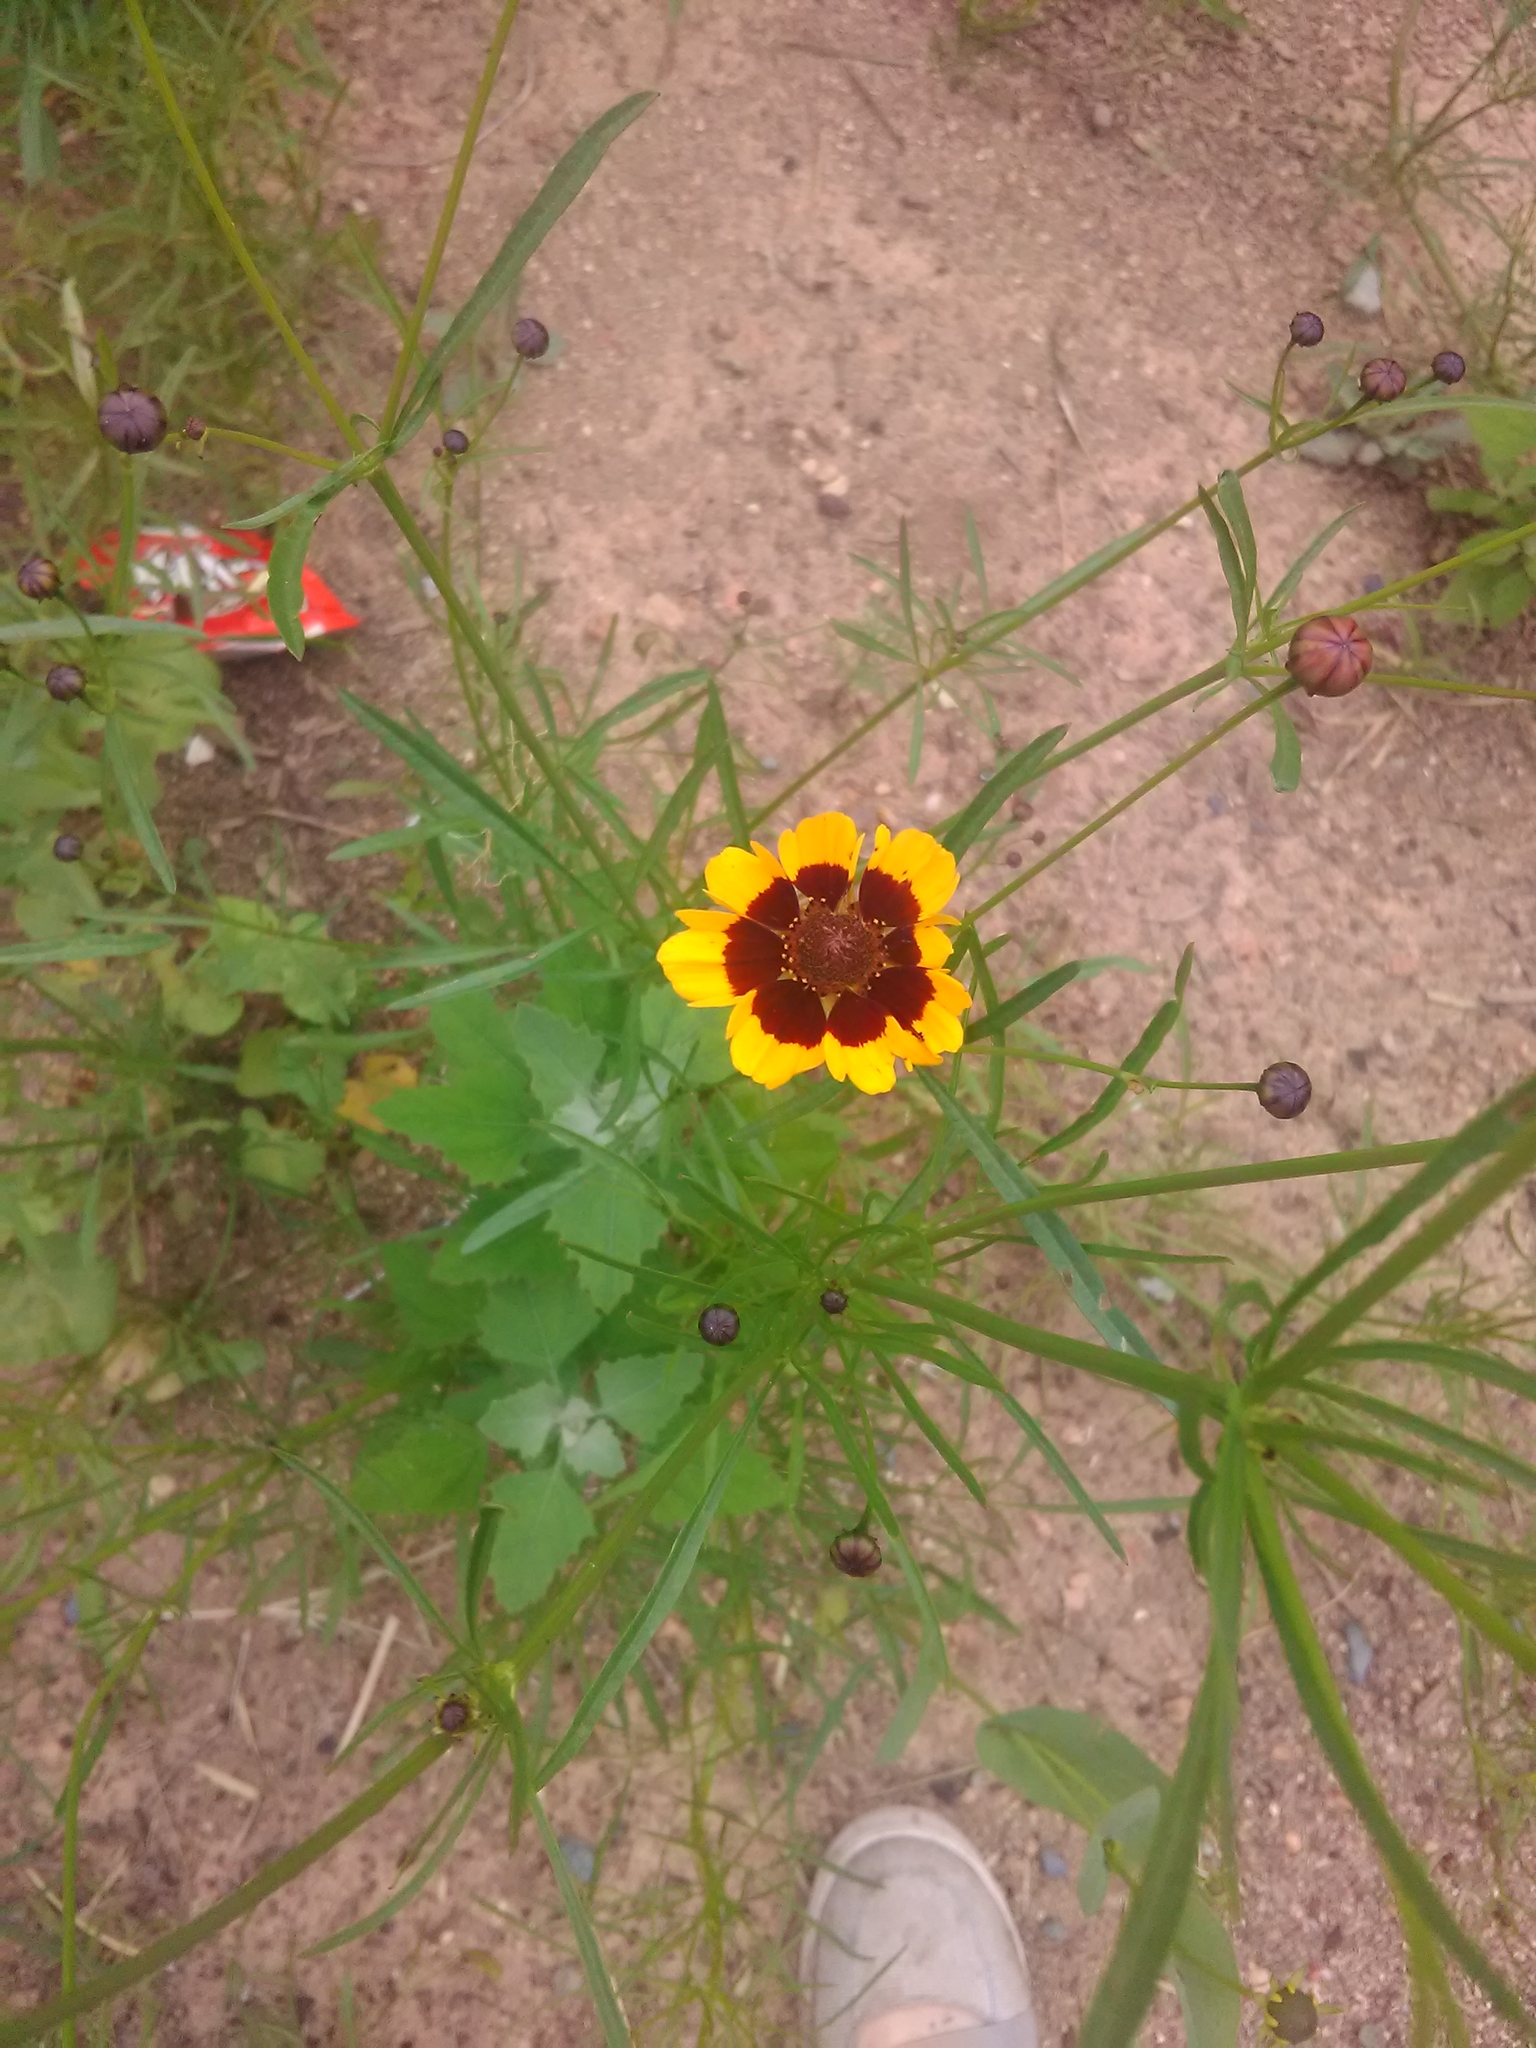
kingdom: Plantae
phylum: Tracheophyta
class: Magnoliopsida
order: Asterales
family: Asteraceae
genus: Coreopsis
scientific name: Coreopsis tinctoria
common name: Garden tickseed
